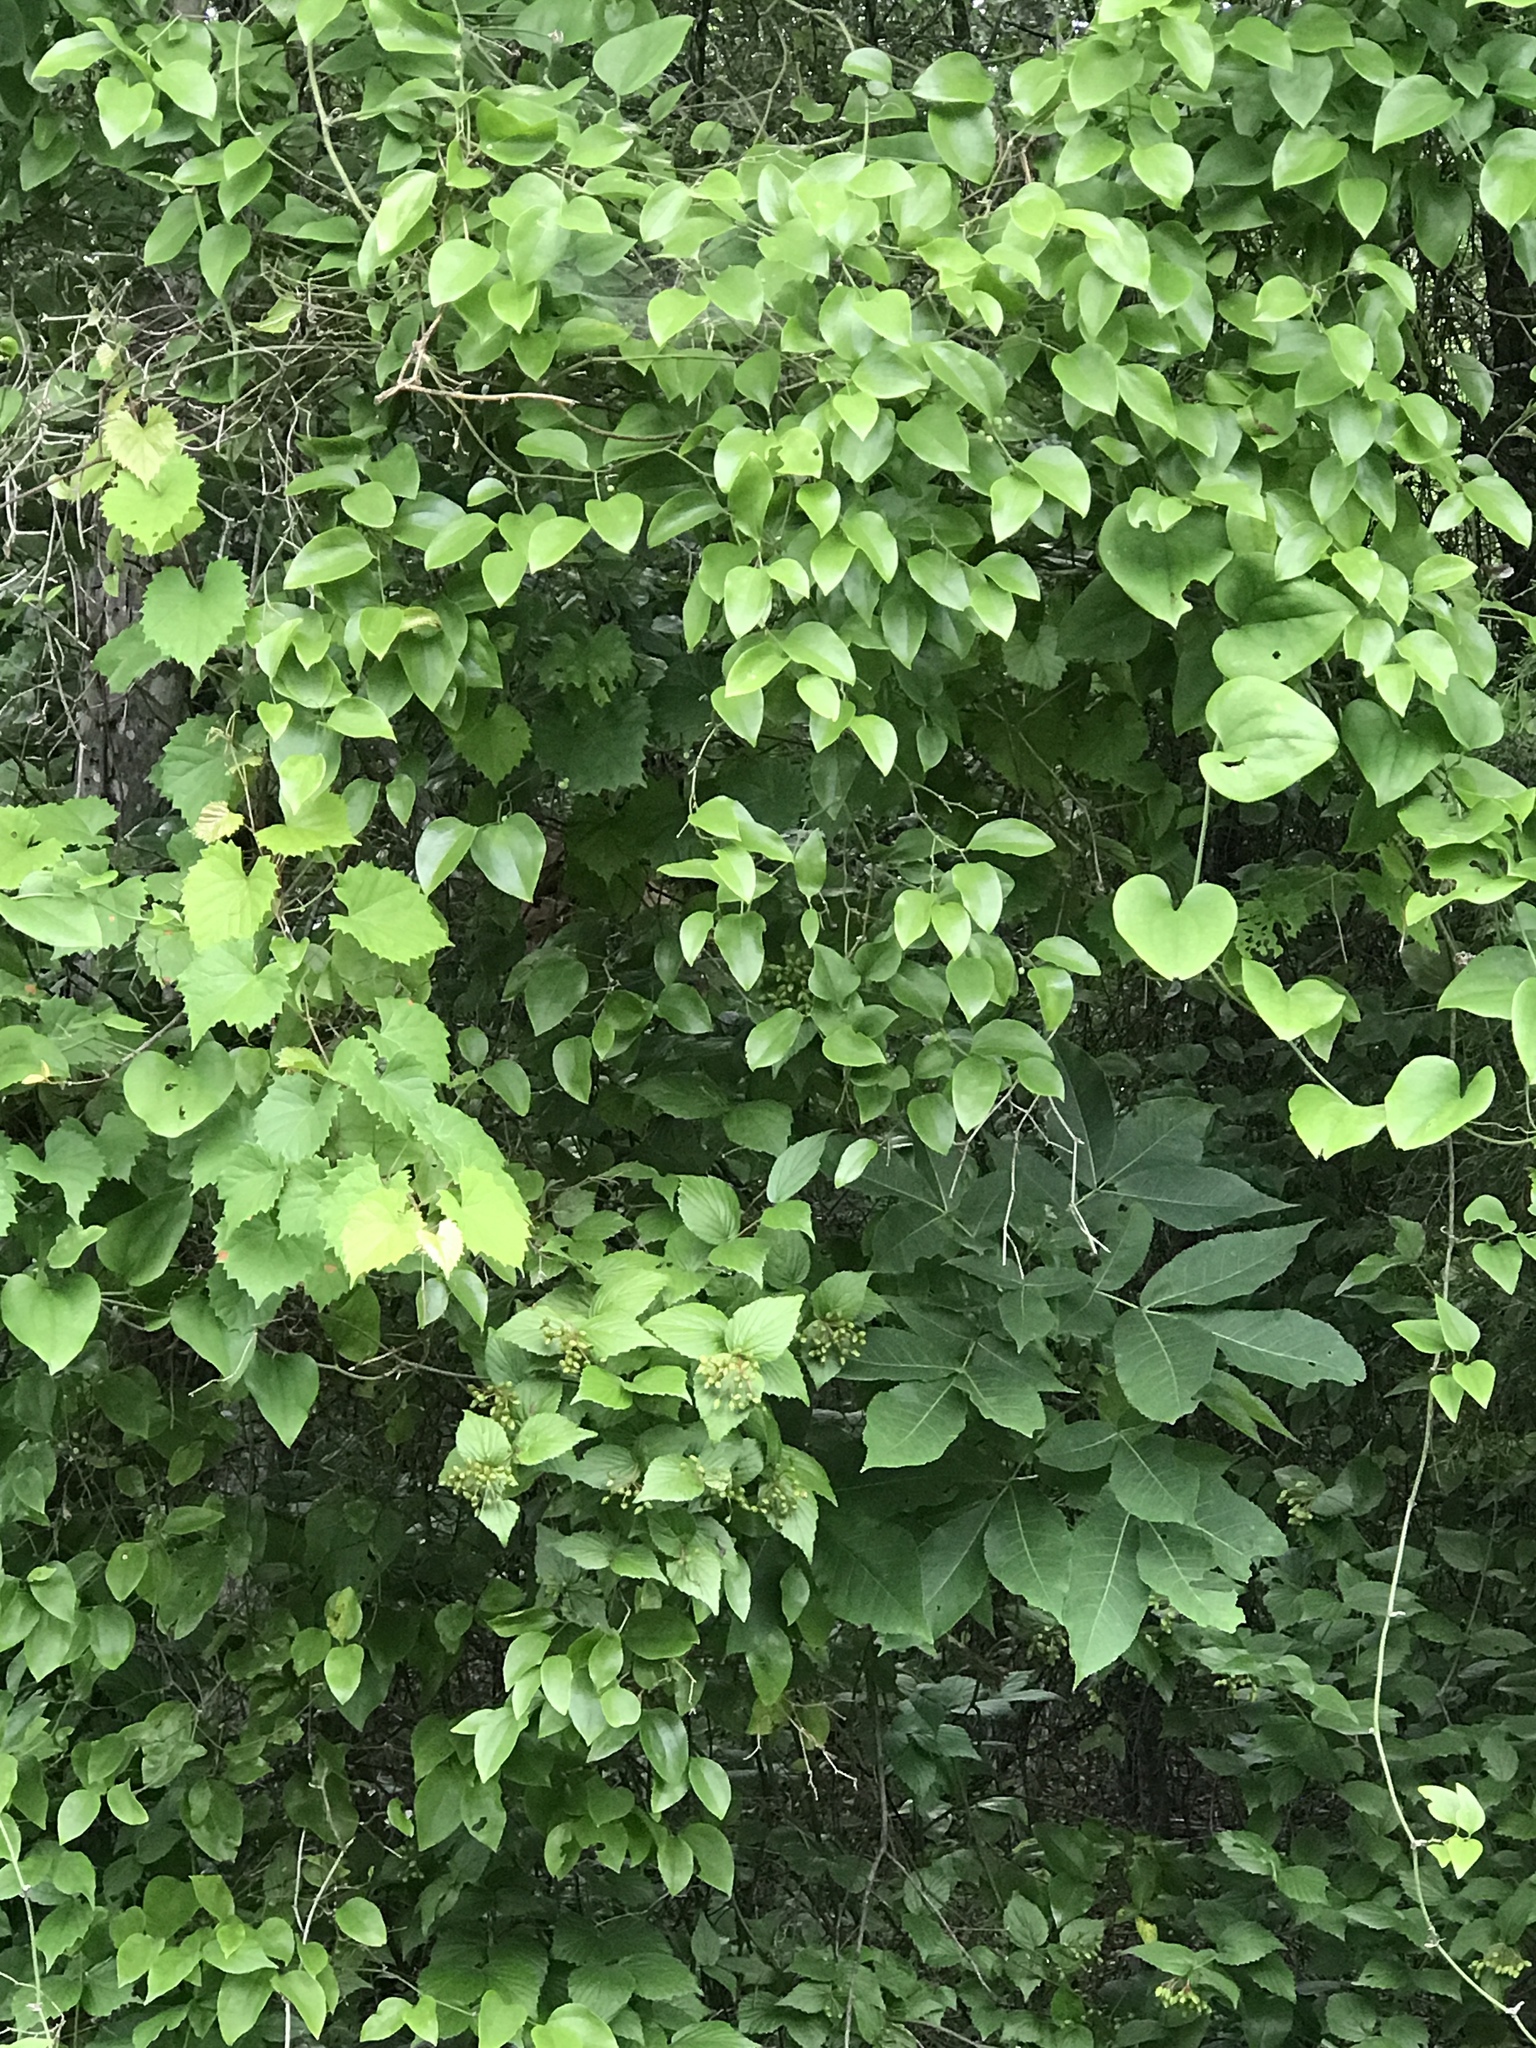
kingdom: Plantae
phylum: Tracheophyta
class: Liliopsida
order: Liliales
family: Smilacaceae
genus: Smilax
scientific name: Smilax rotundifolia
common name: Bullbriar
